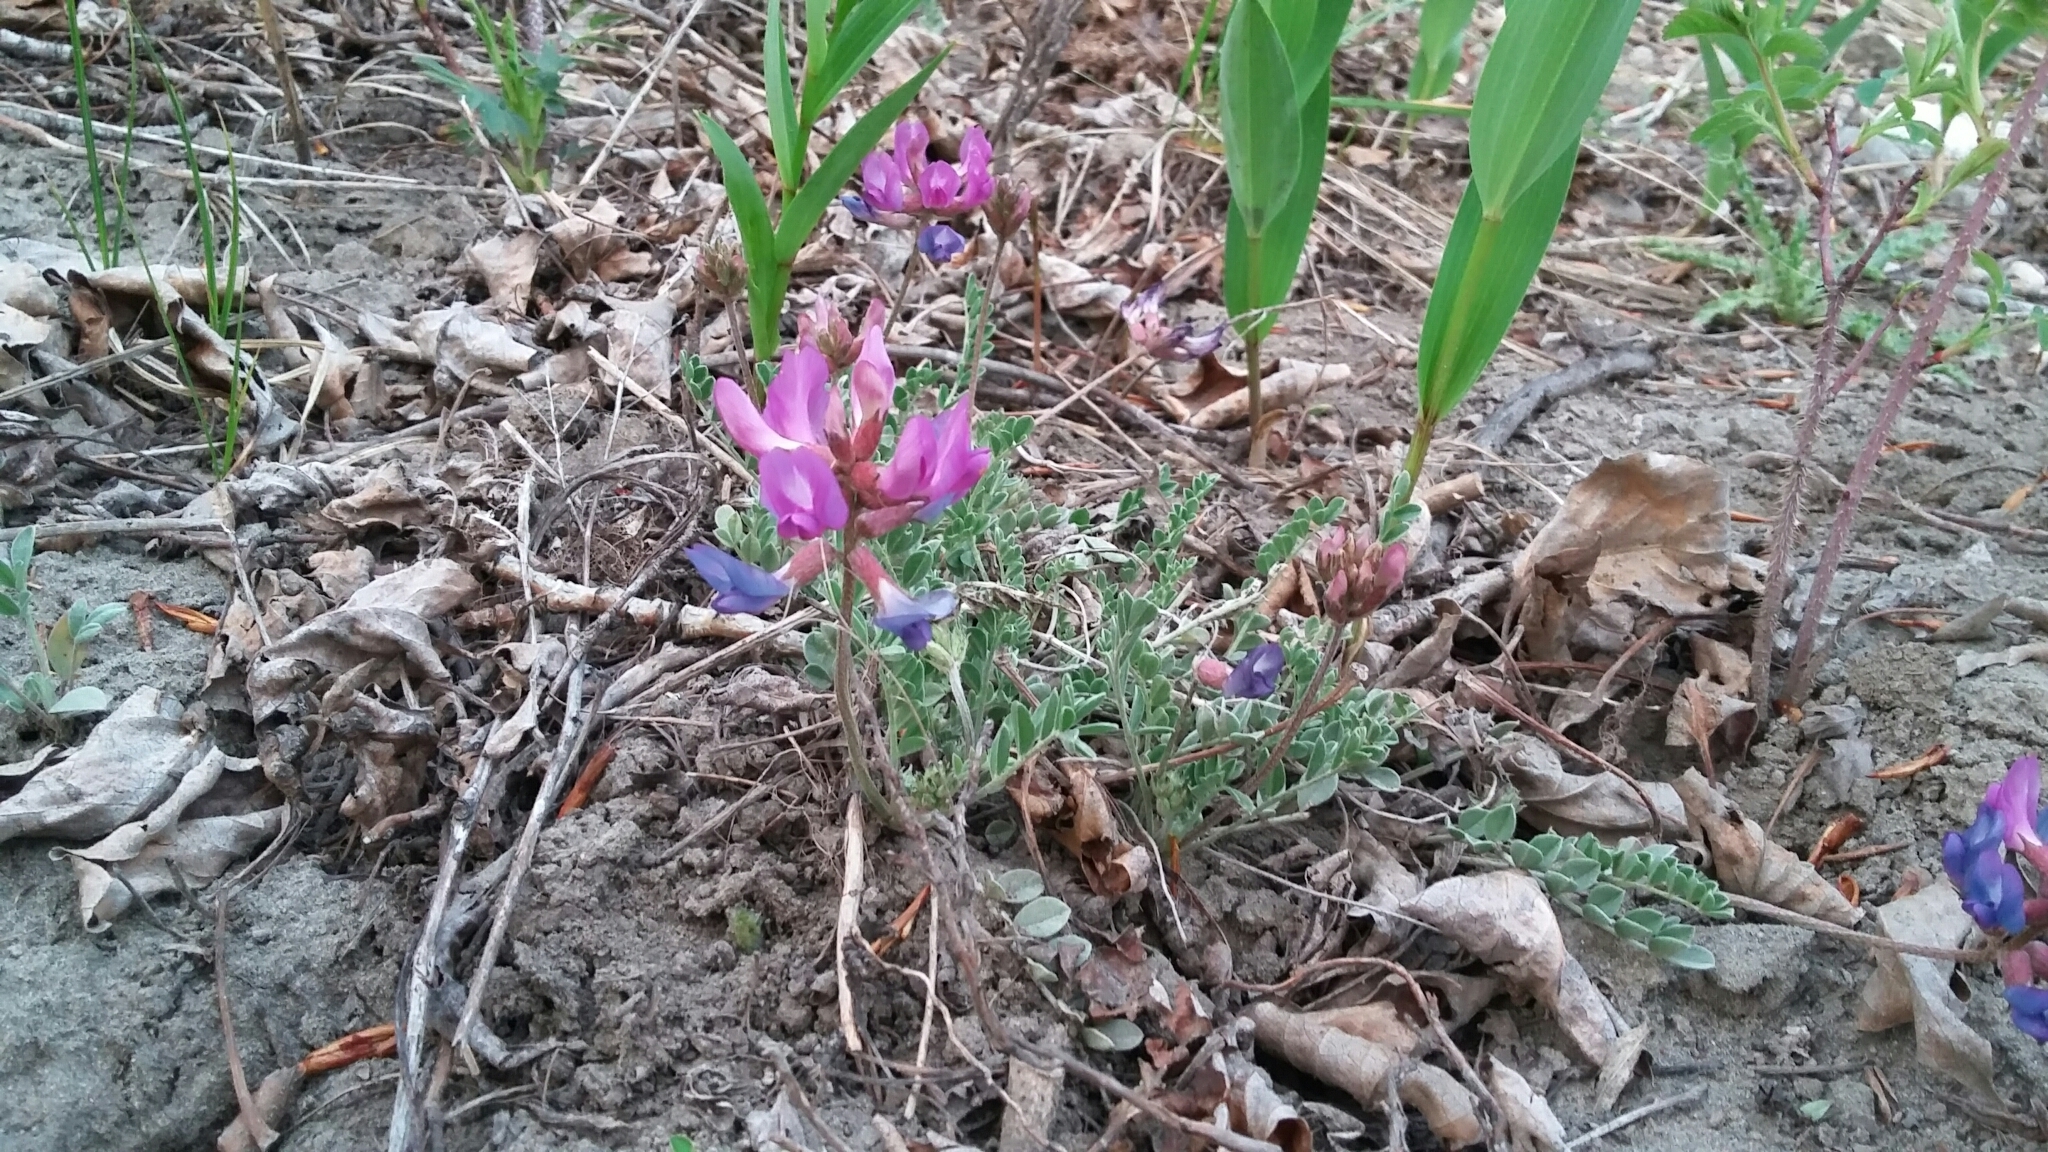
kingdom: Plantae
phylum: Tracheophyta
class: Magnoliopsida
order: Fabales
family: Fabaceae
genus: Astragalus
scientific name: Astragalus missouriensis
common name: Missouri milk-vetch
